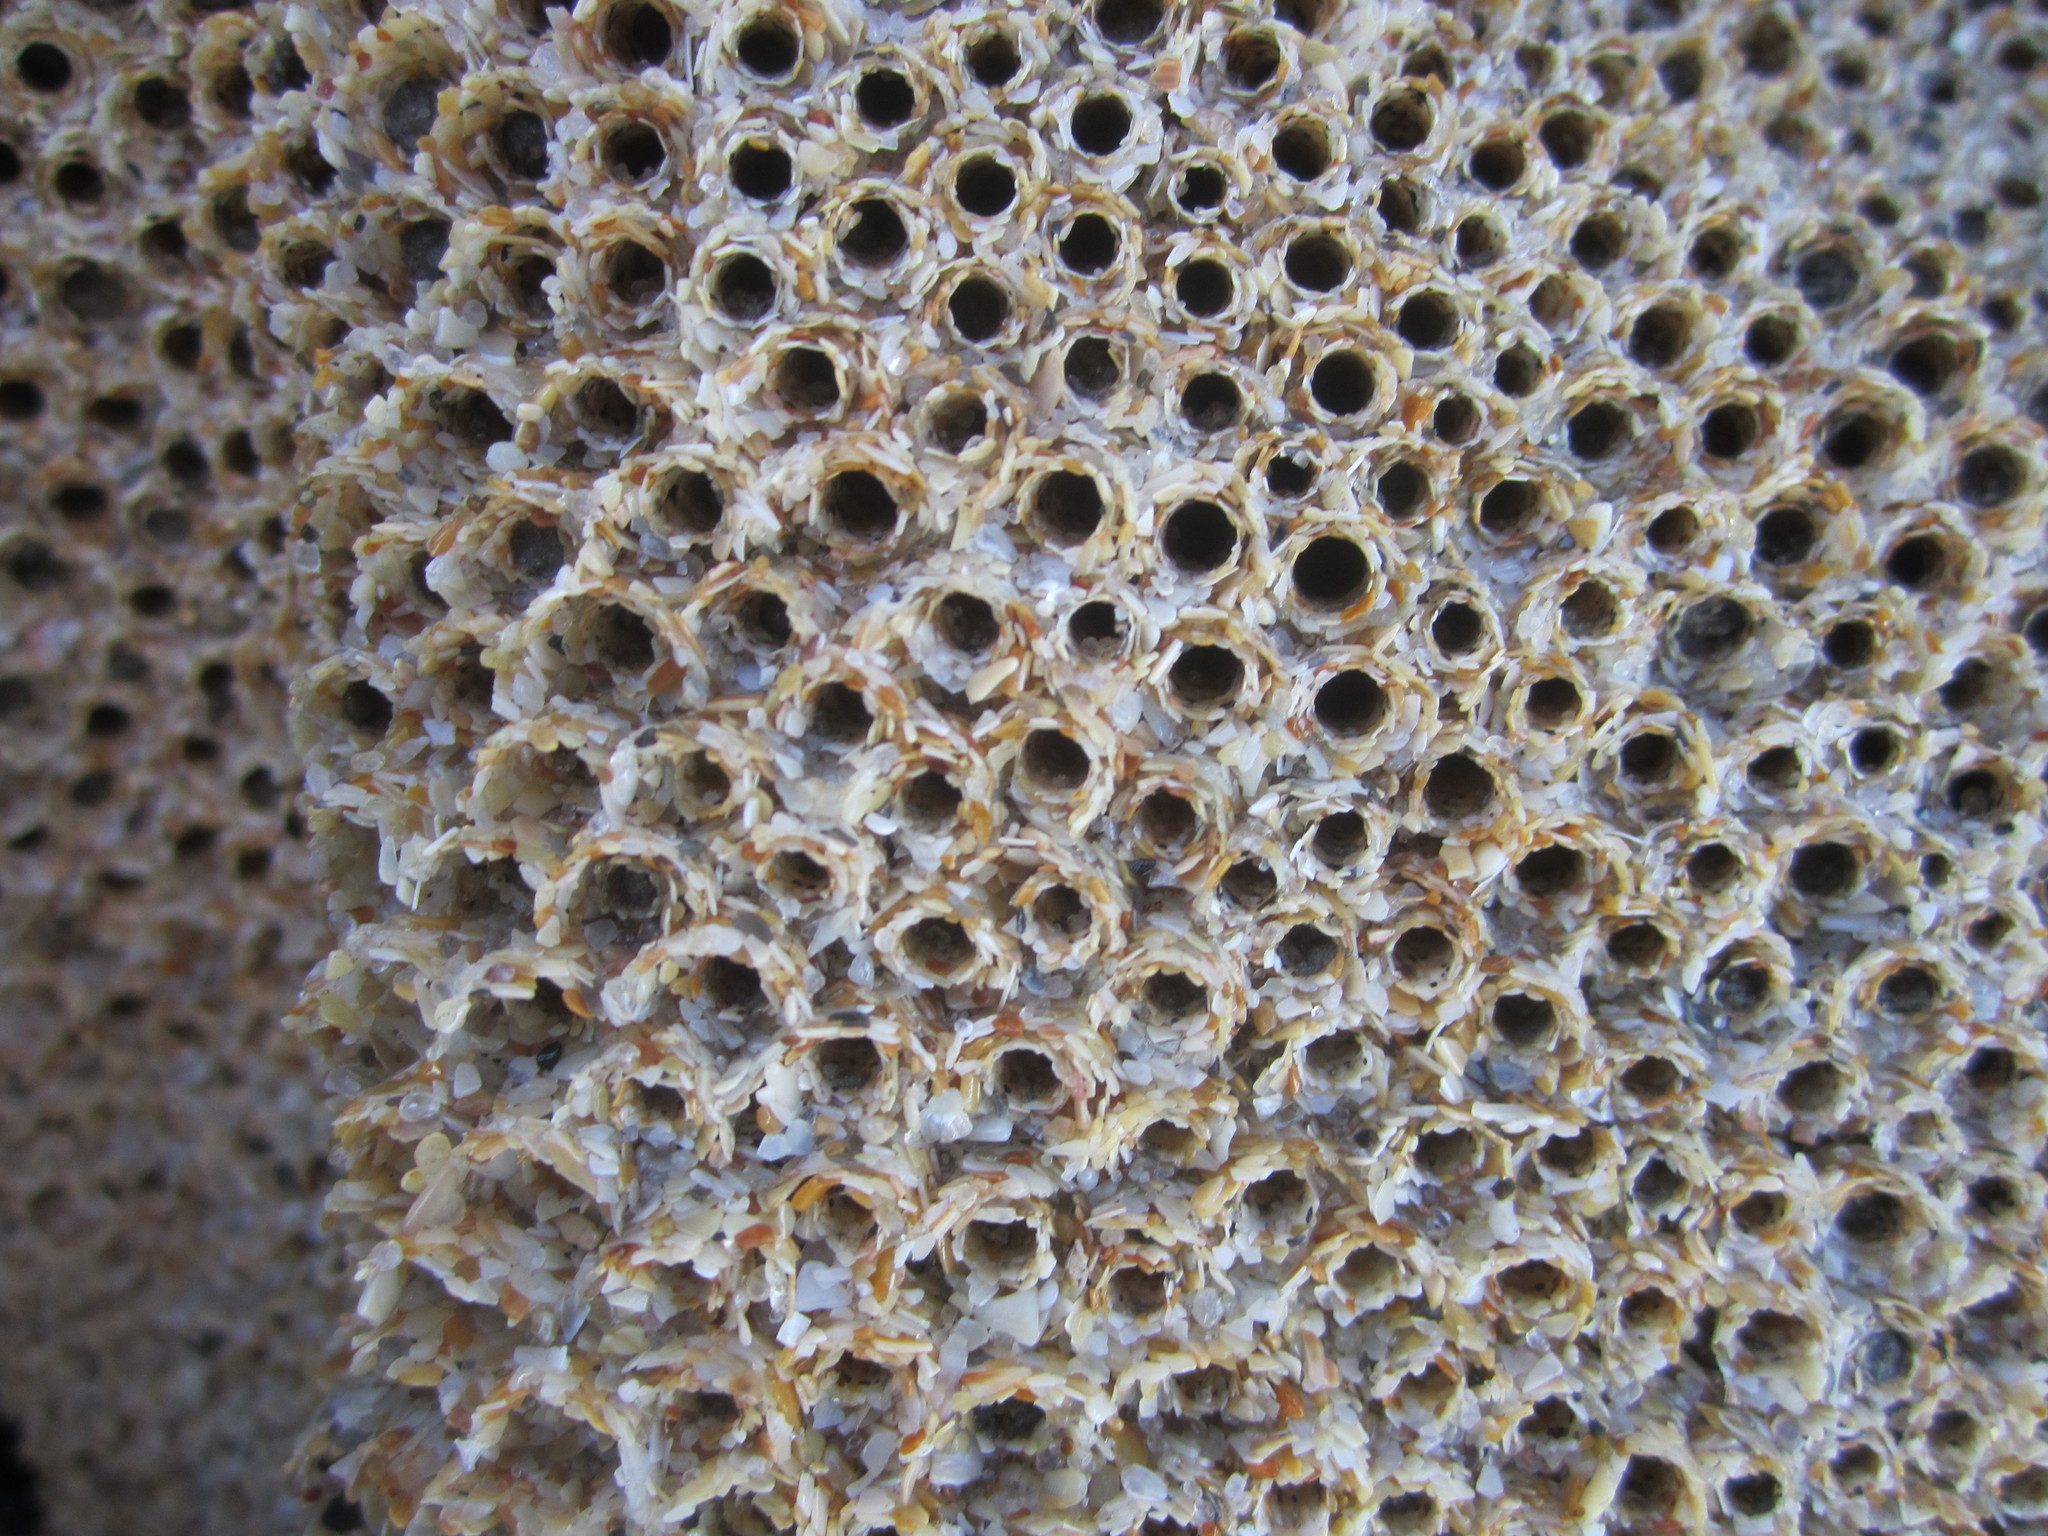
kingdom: Animalia
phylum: Annelida
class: Polychaeta
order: Sabellida
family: Sabellariidae
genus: Sabellaria
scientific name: Sabellaria alveolata
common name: Honeycomb worm
